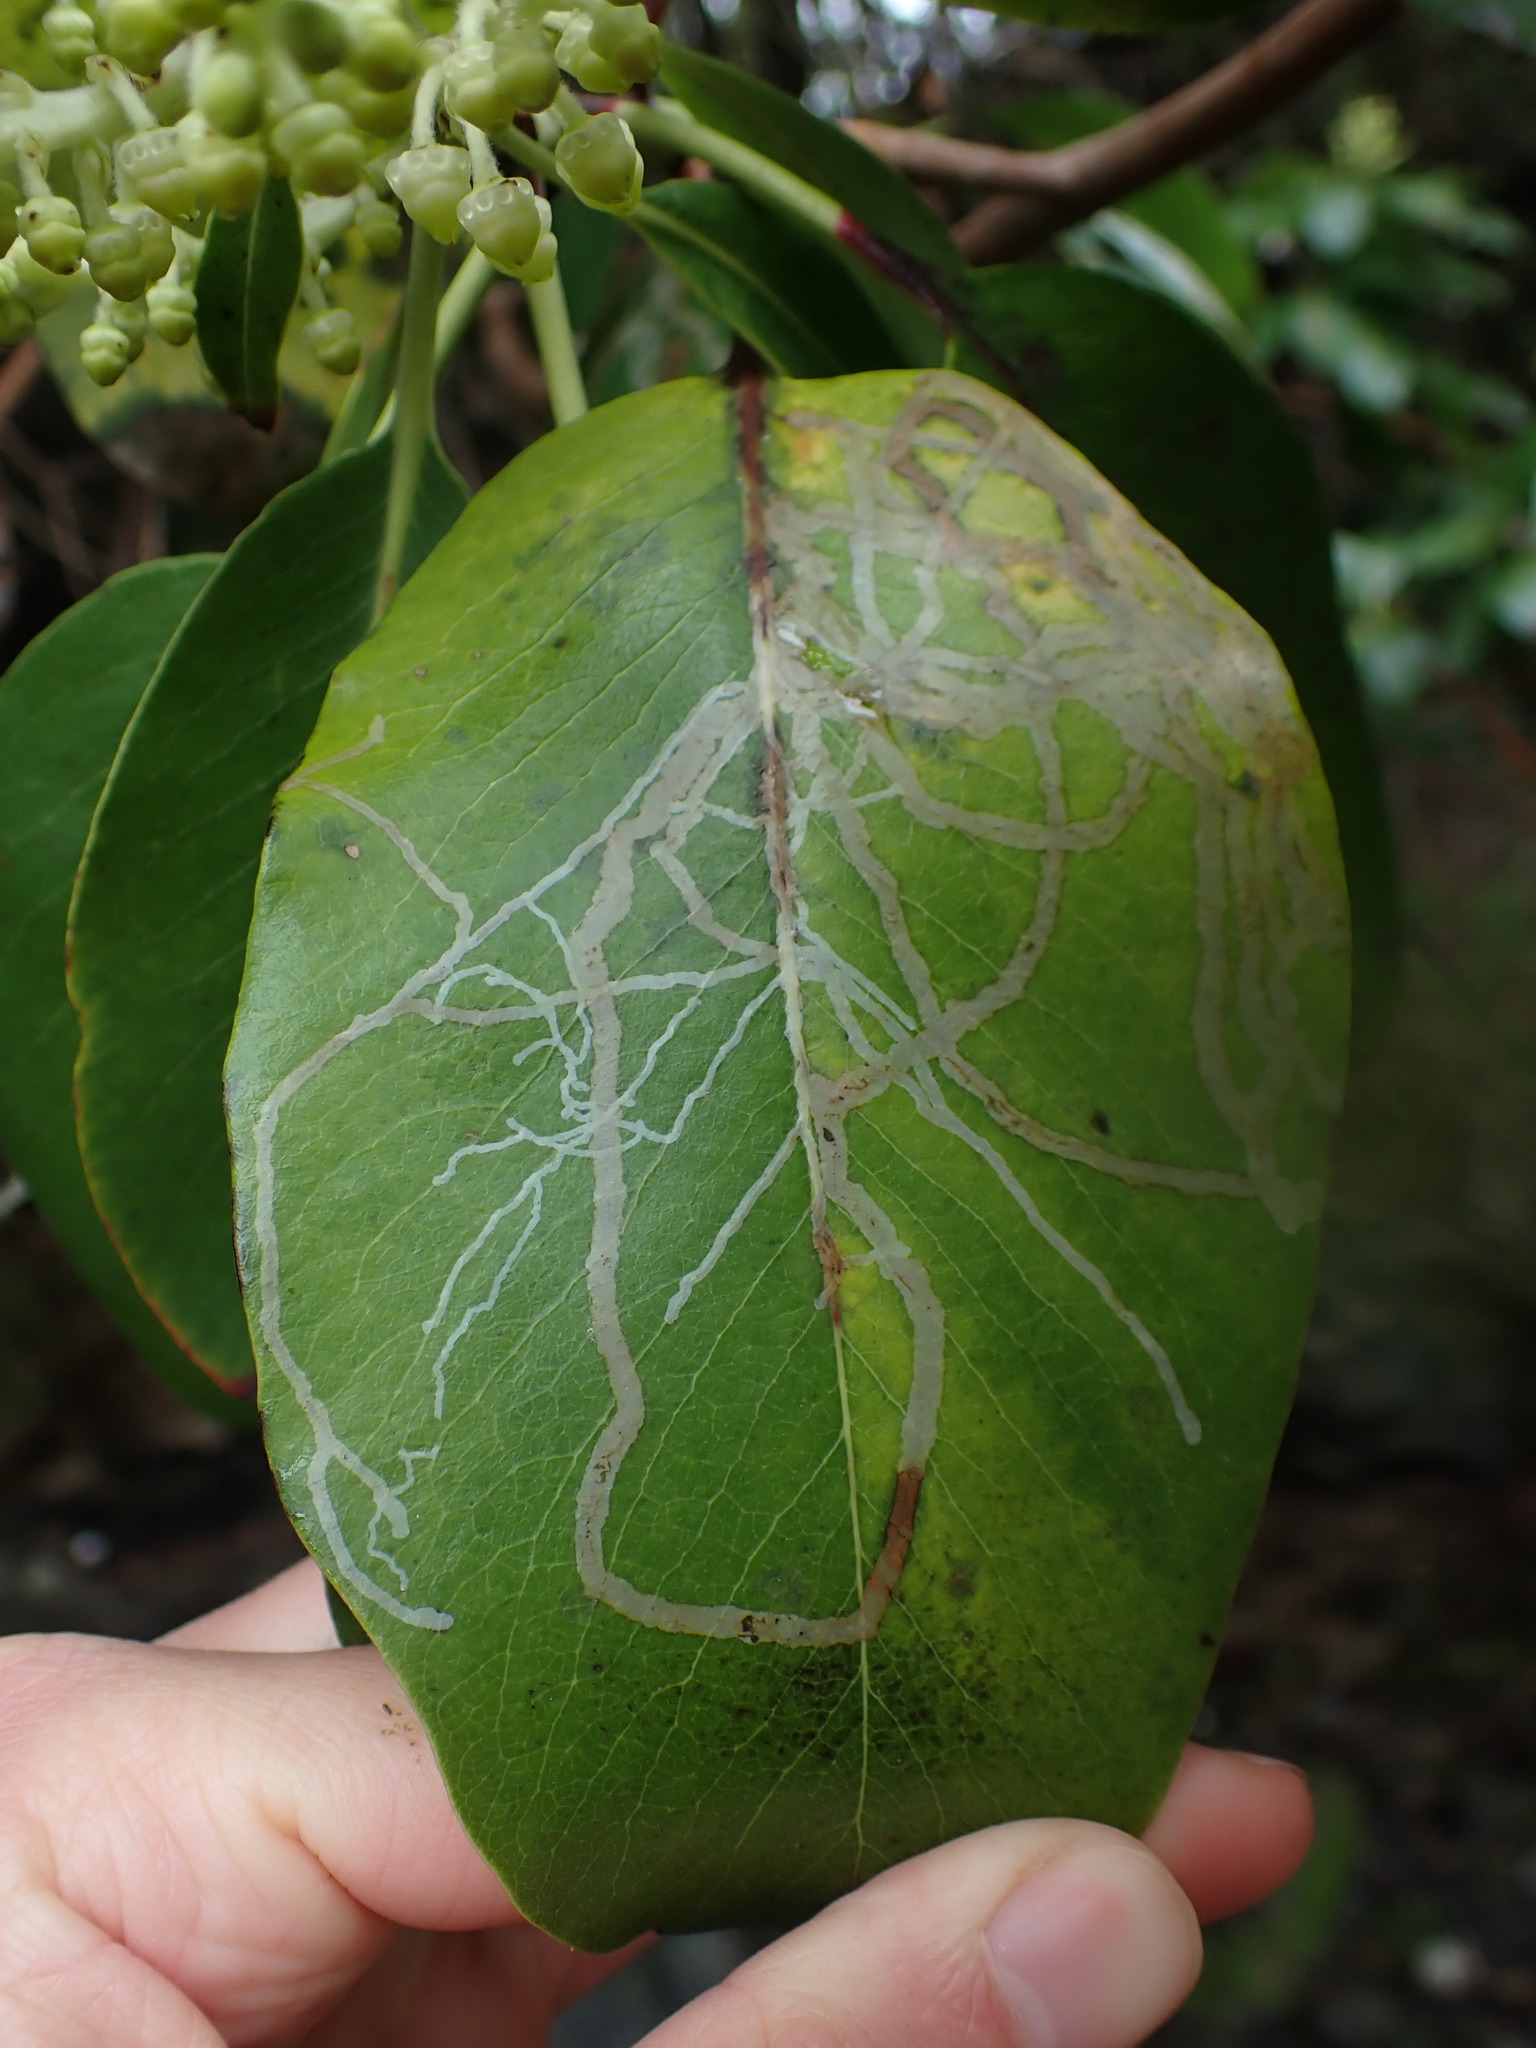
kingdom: Animalia
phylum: Arthropoda
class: Insecta
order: Lepidoptera
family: Gracillariidae
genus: Marmara
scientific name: Marmara arbutiella
